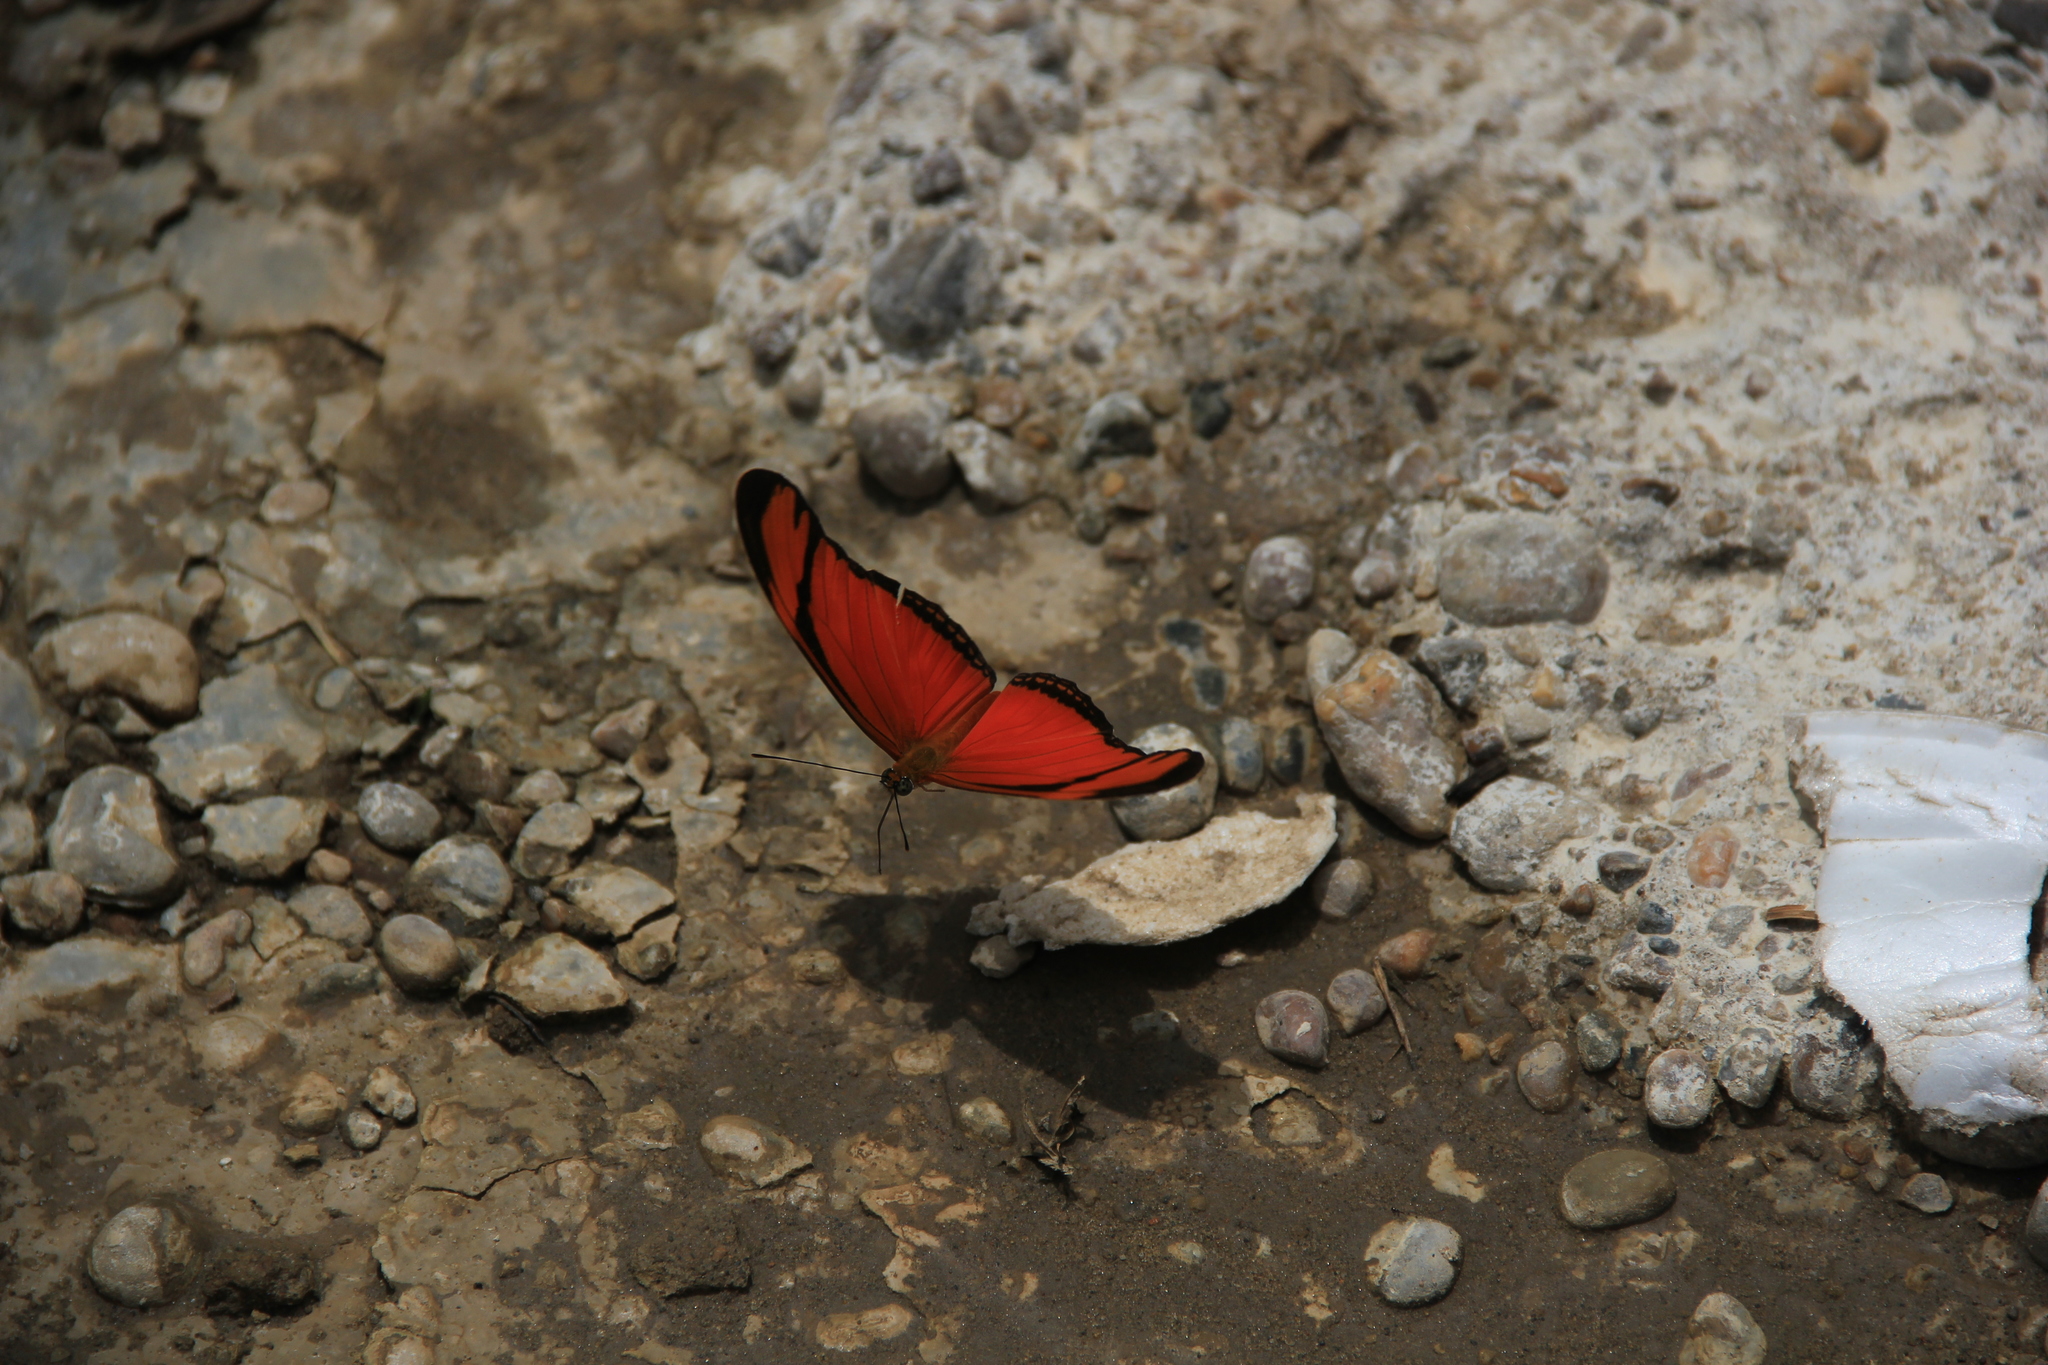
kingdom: Animalia
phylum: Arthropoda
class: Insecta
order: Lepidoptera
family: Nymphalidae
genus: Dryas
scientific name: Dryas iulia
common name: Flambeau
